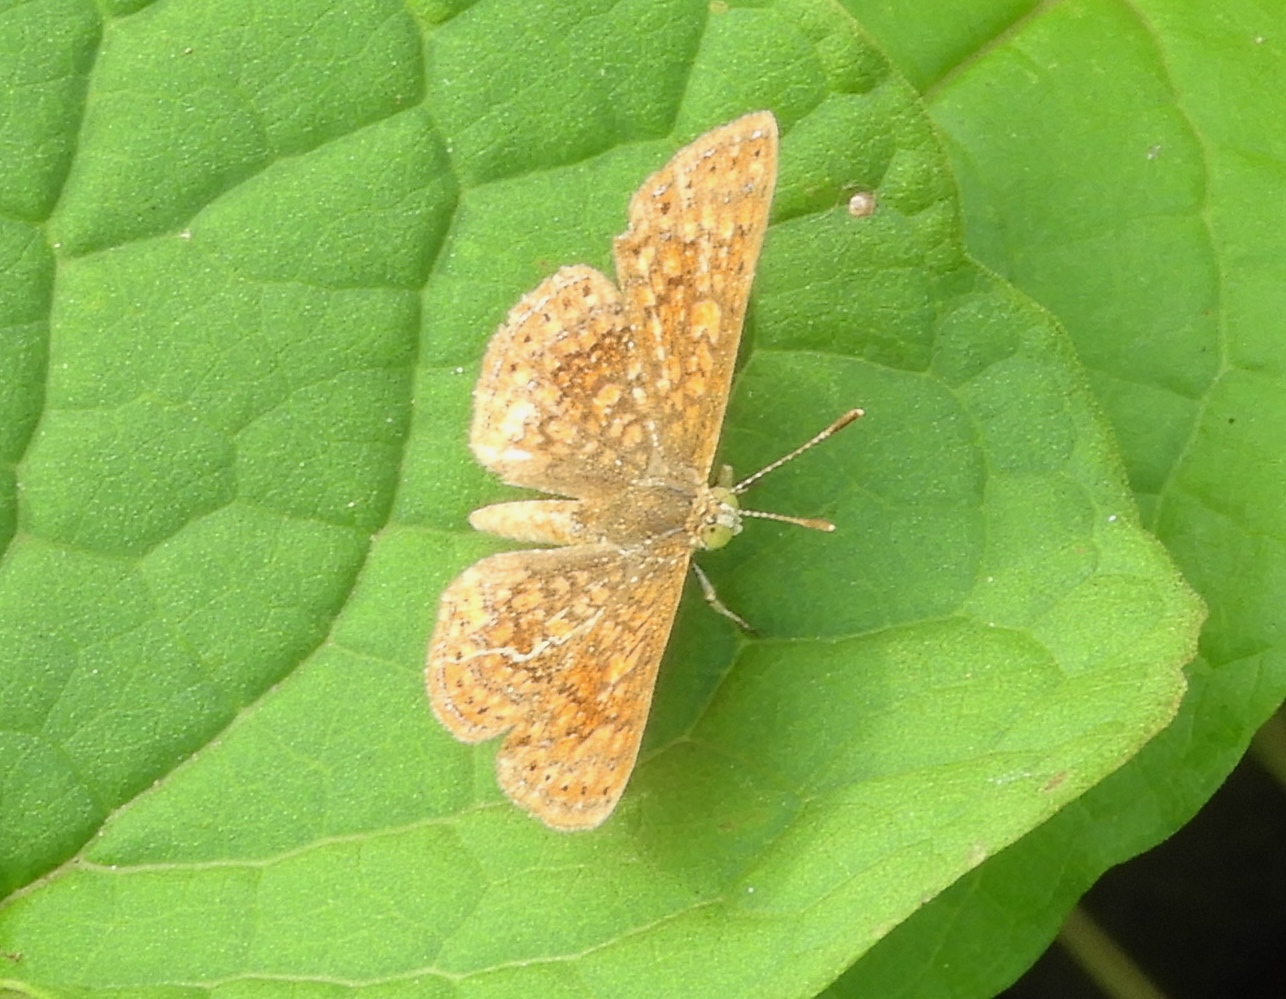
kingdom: Animalia
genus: Calephelis
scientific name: Calephelis
